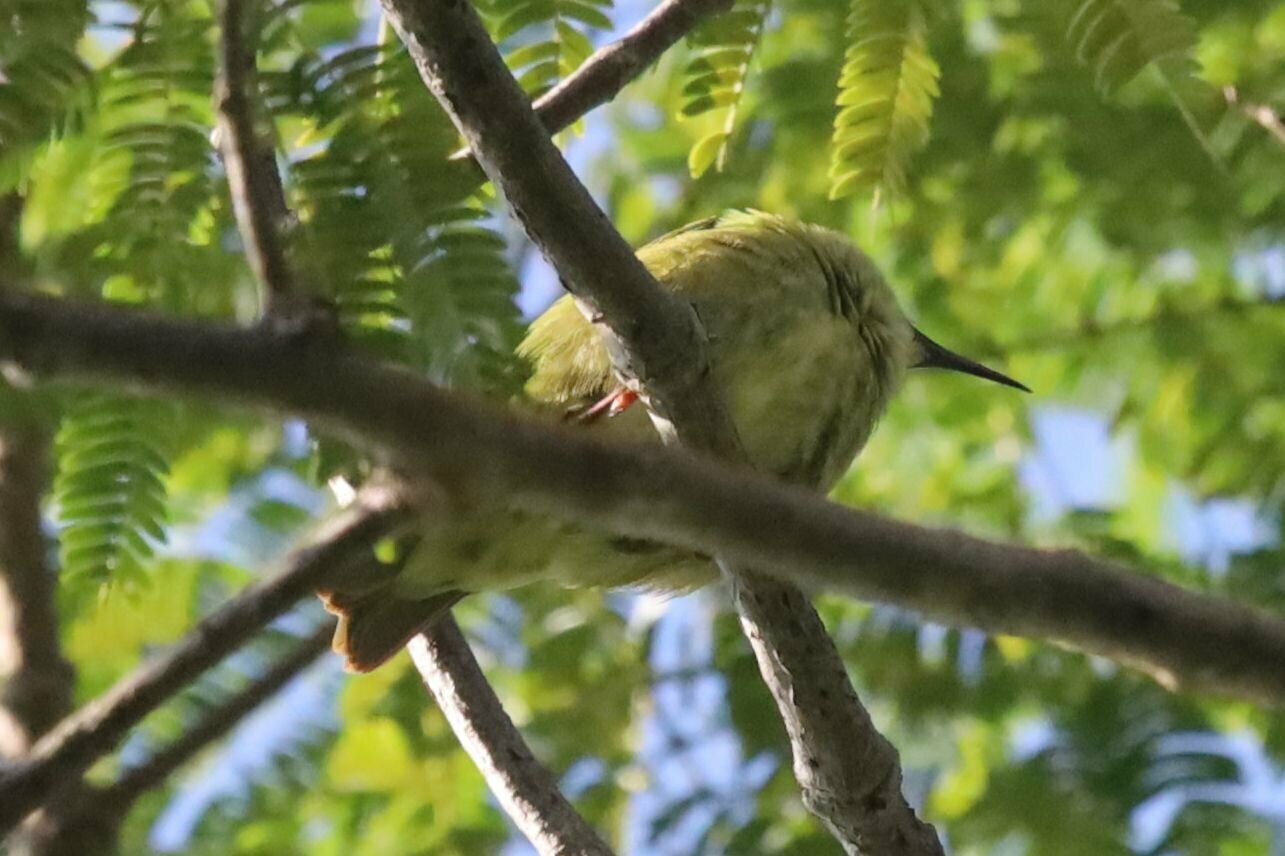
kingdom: Animalia
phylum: Chordata
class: Aves
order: Passeriformes
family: Thraupidae
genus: Cyanerpes
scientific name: Cyanerpes cyaneus
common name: Red-legged honeycreeper
